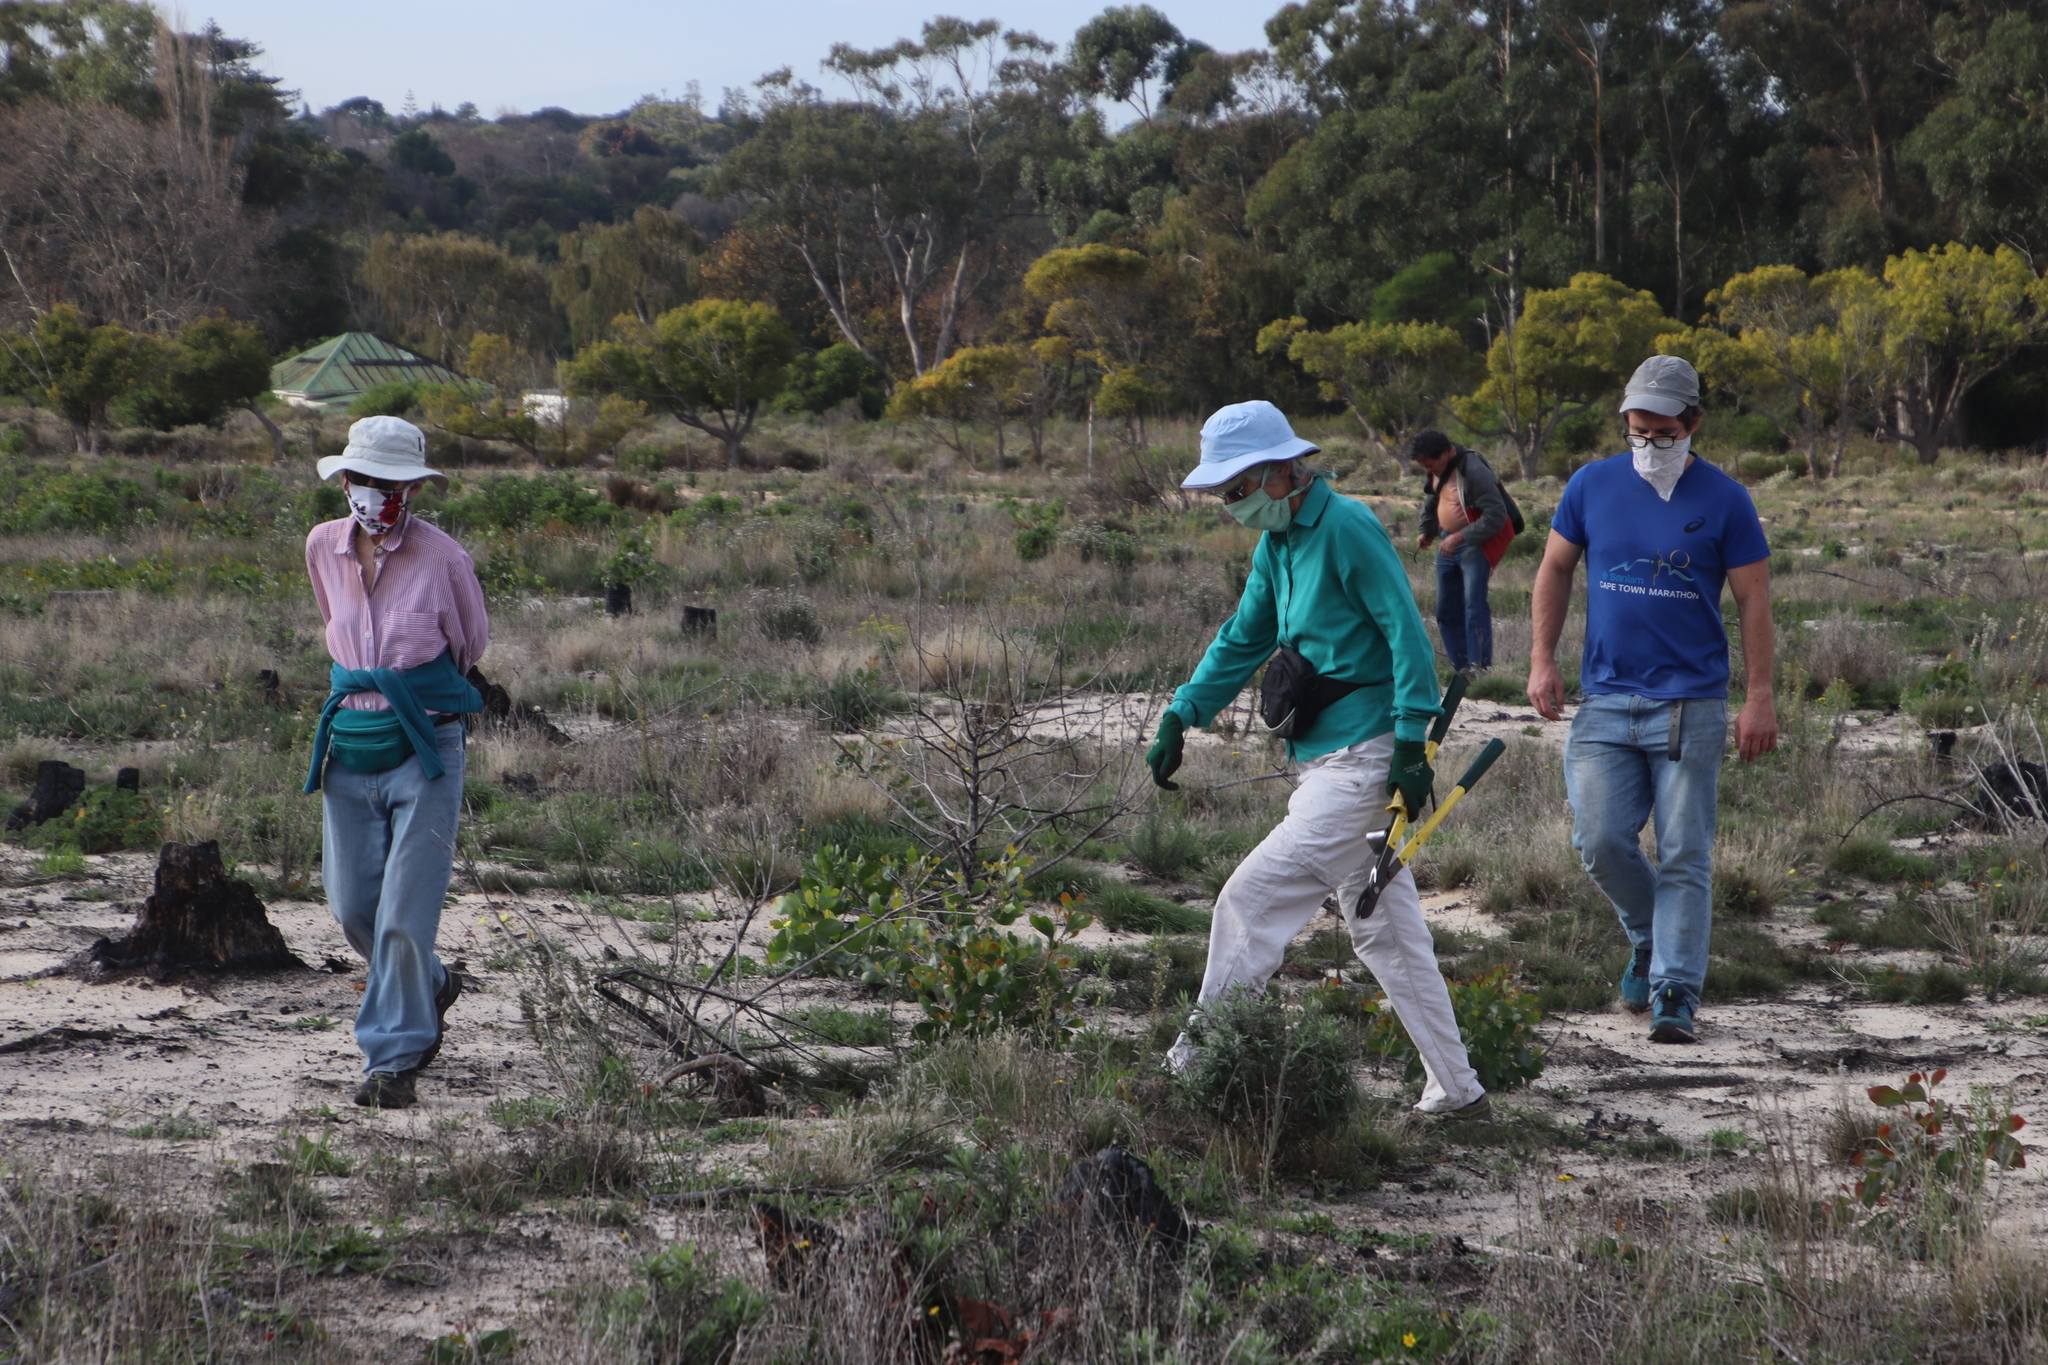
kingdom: Plantae
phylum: Tracheophyta
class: Magnoliopsida
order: Fabales
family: Fabaceae
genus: Acacia
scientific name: Acacia pycnantha
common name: Golden wattle
